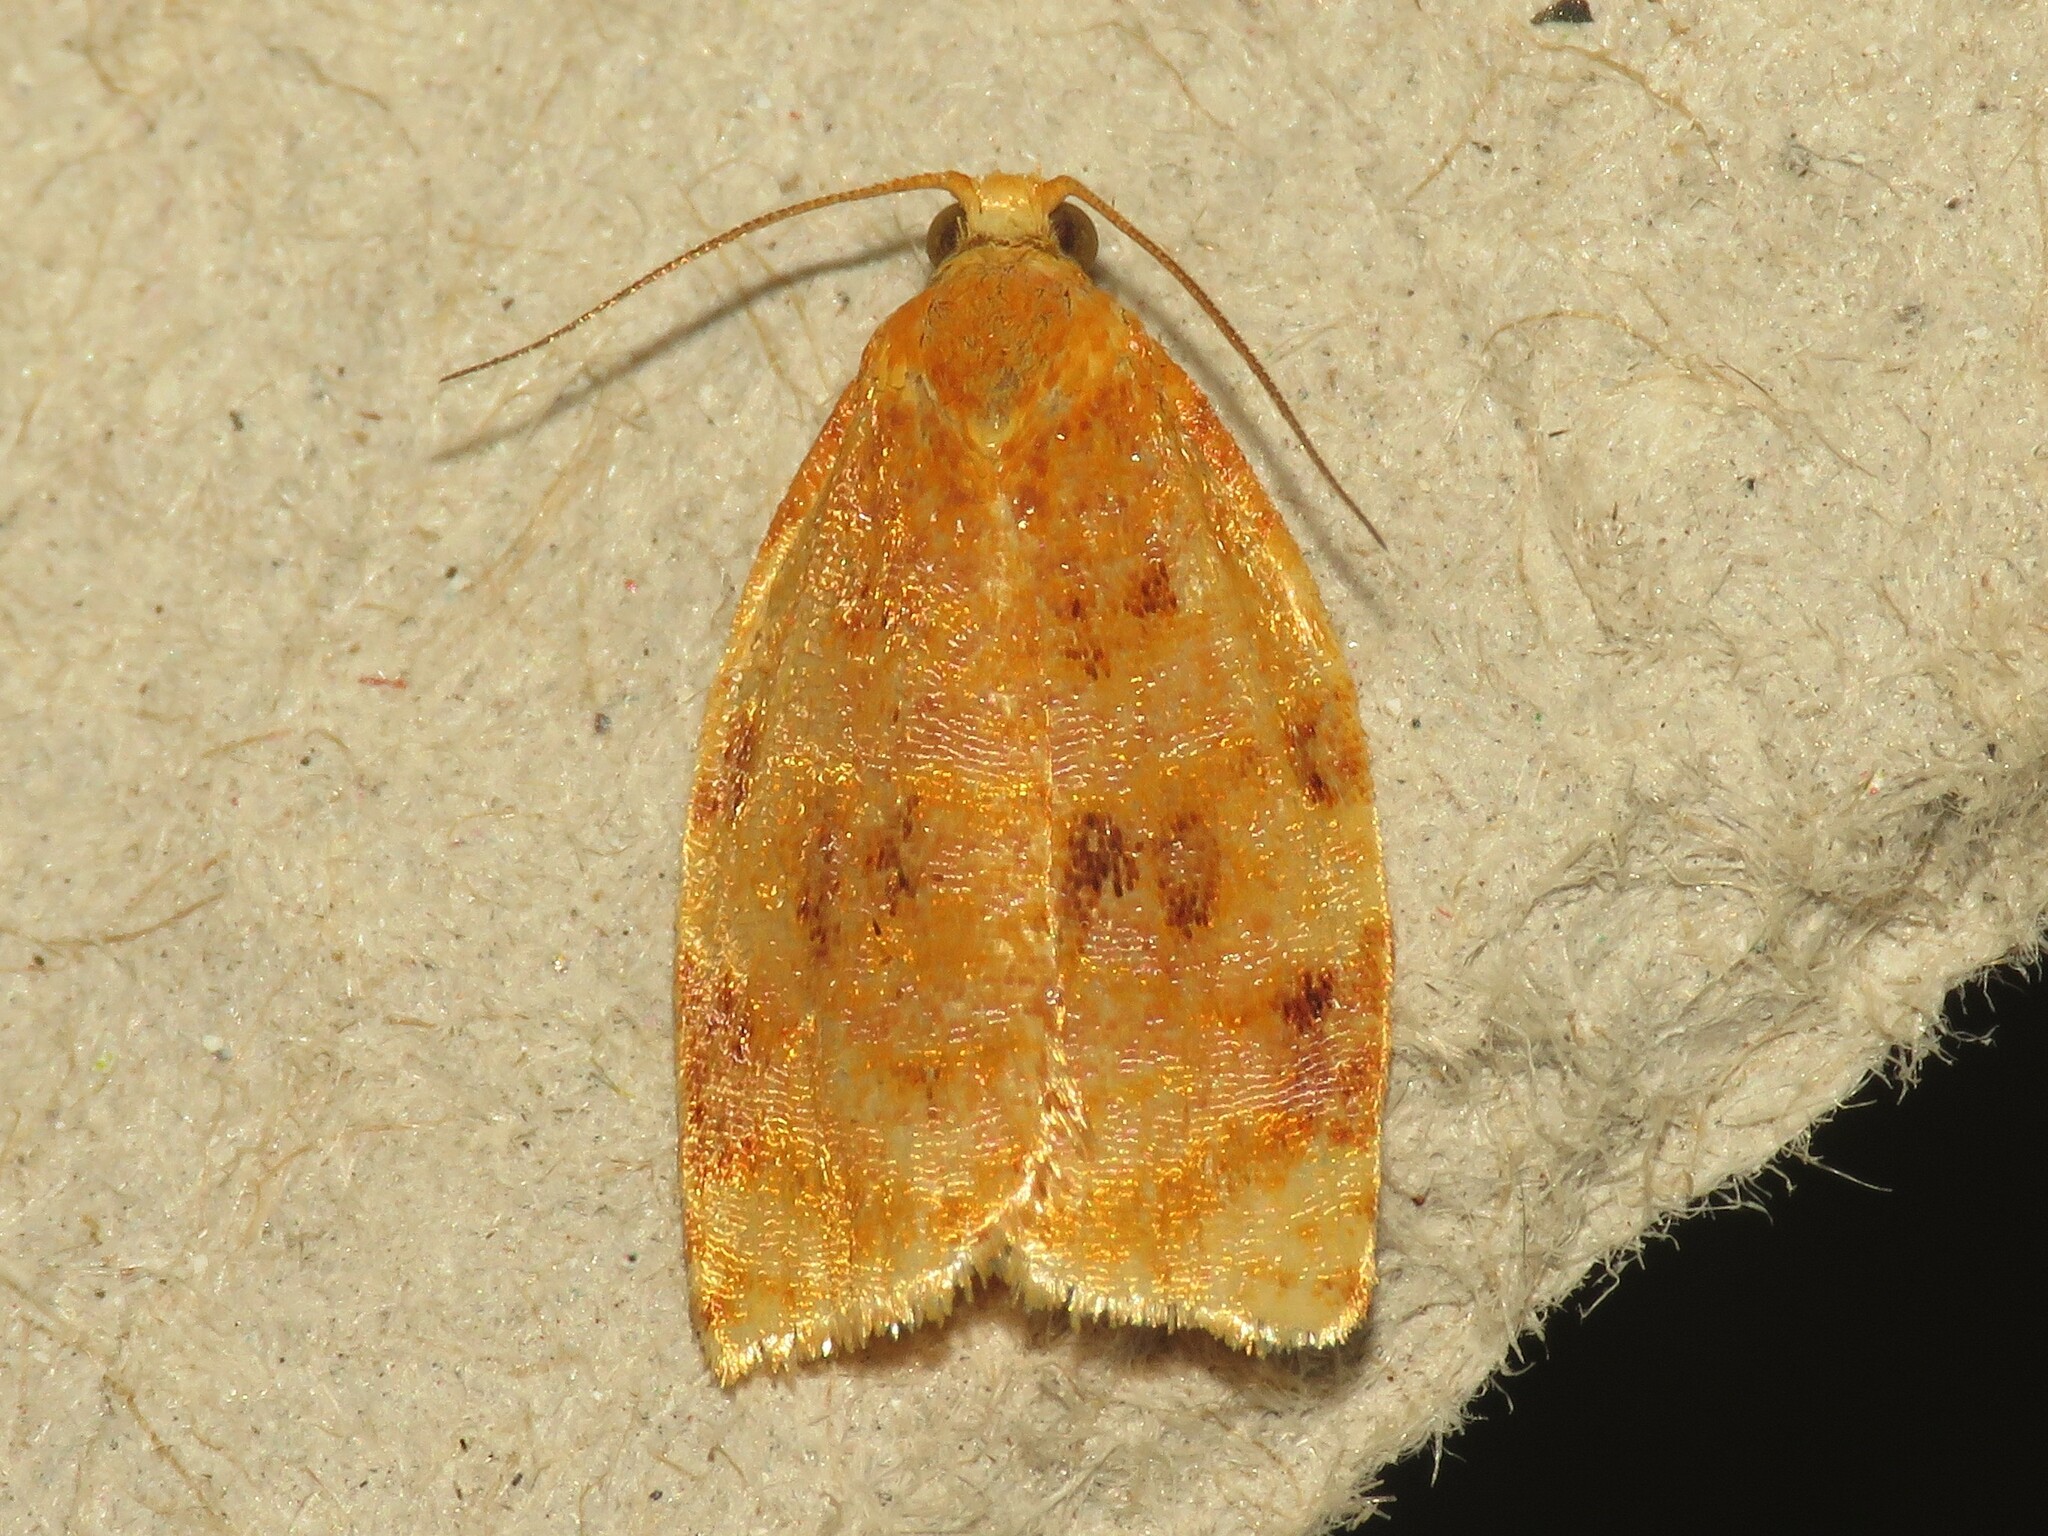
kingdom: Animalia
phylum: Arthropoda
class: Insecta
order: Lepidoptera
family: Tortricidae
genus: Archips
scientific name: Archips cerasivorana
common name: Uglynest caterpillar
